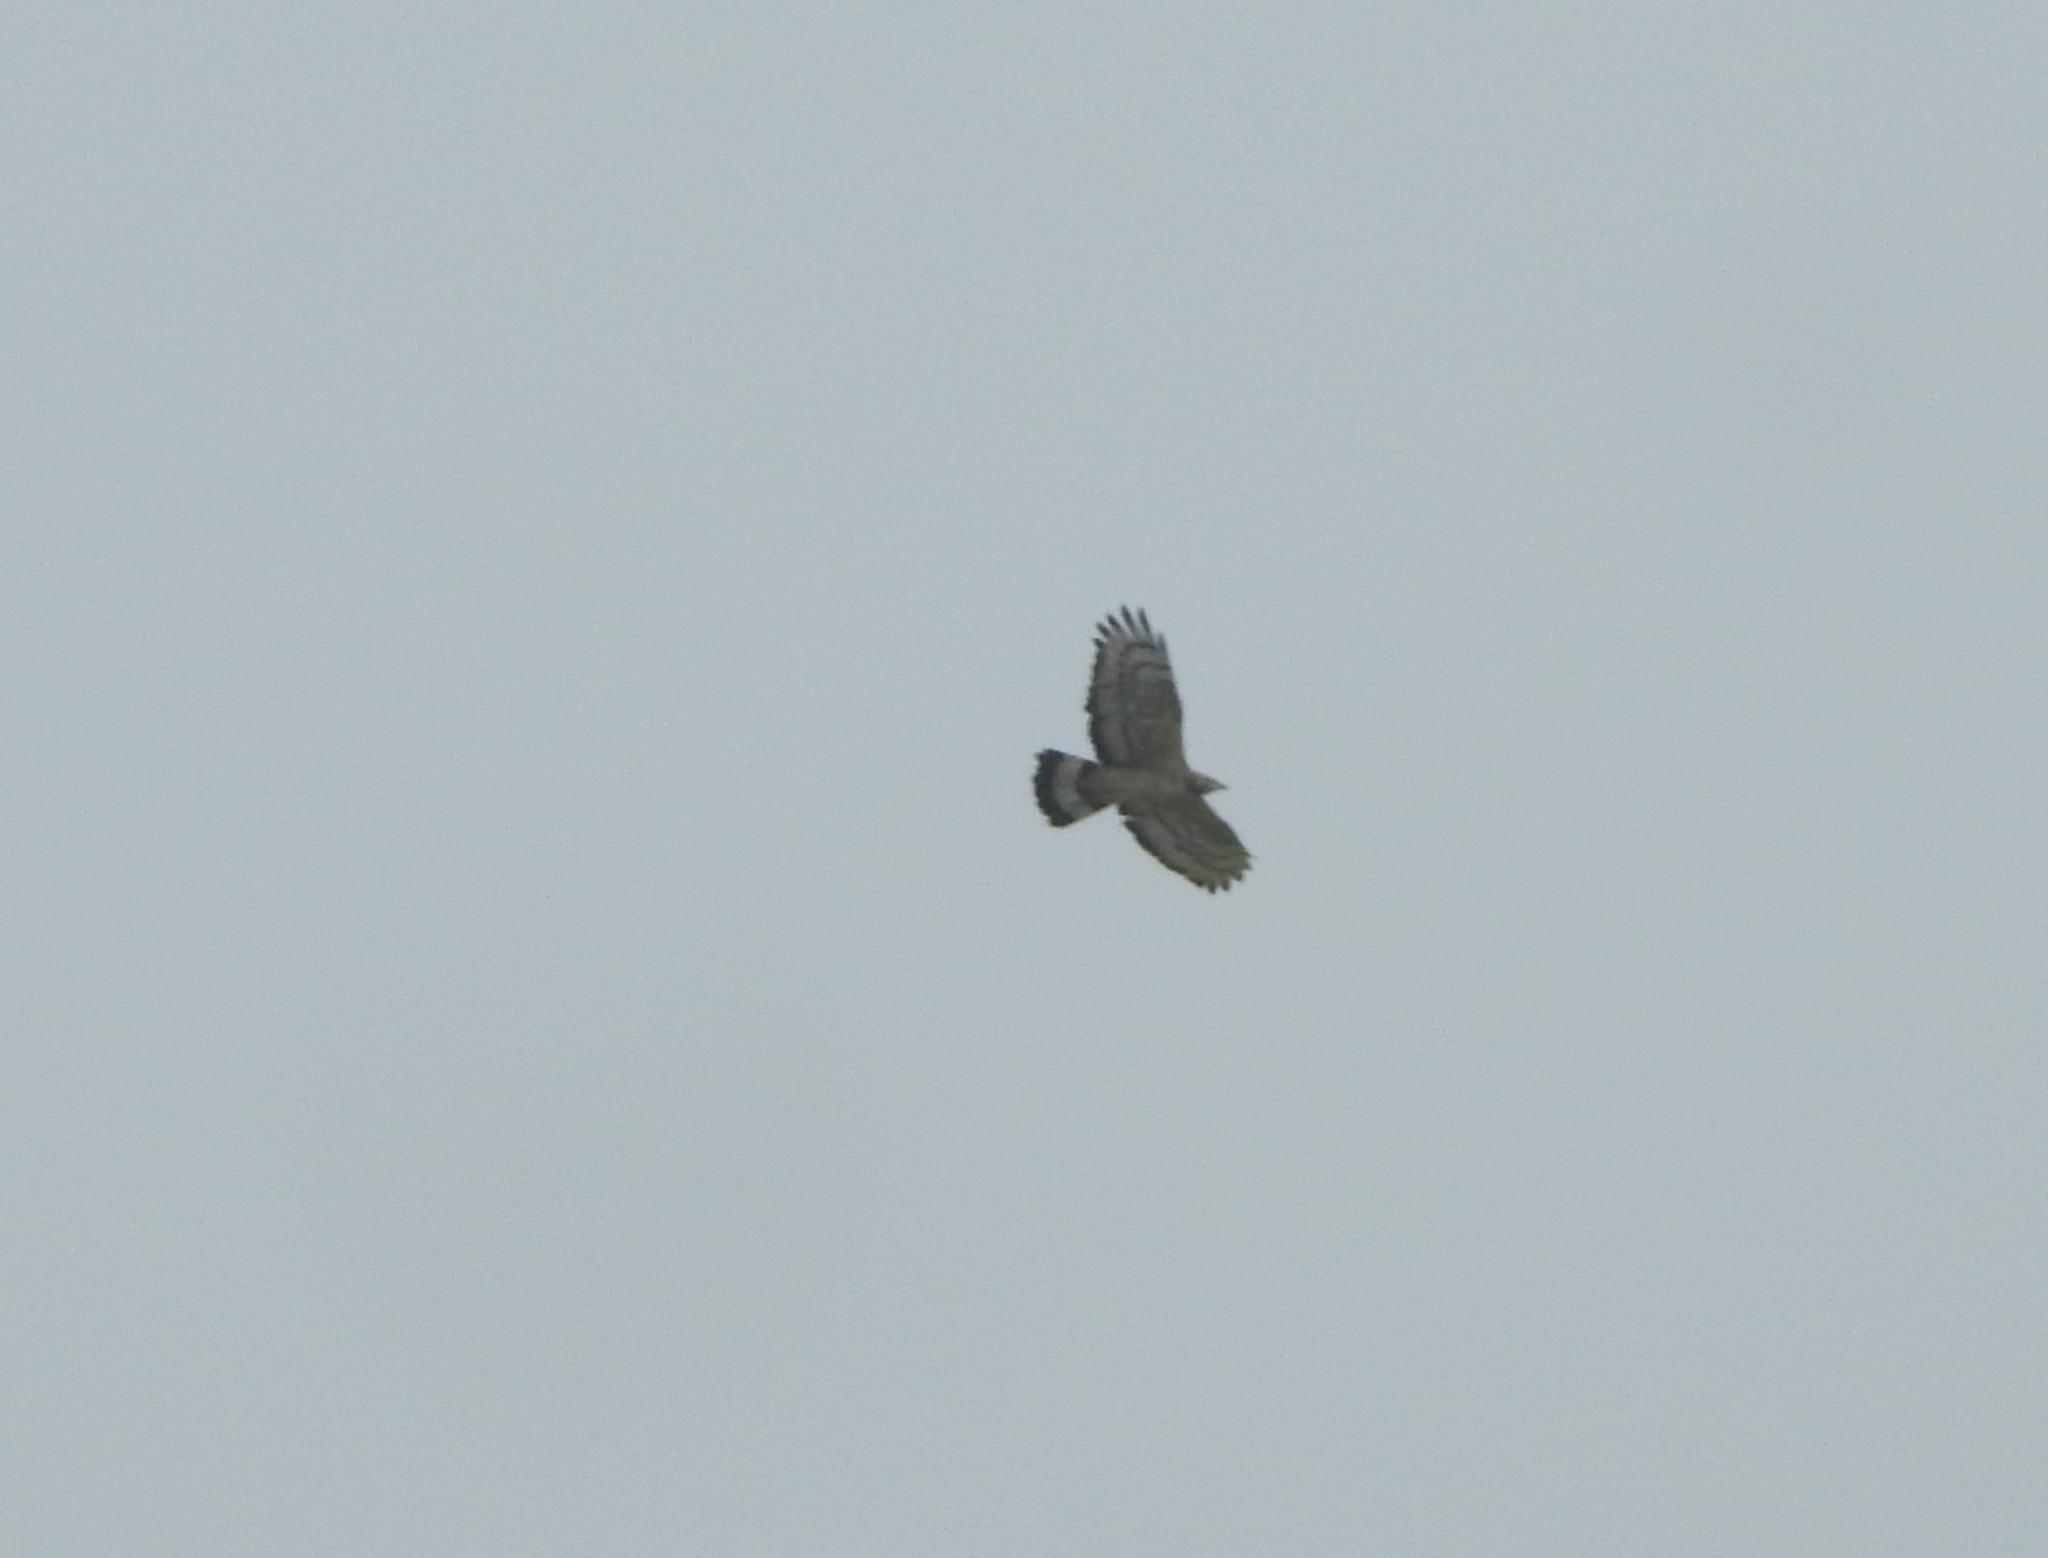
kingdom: Animalia
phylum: Chordata
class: Aves
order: Accipitriformes
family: Accipitridae
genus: Pernis
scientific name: Pernis ptilorhynchus
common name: Crested honey buzzard
